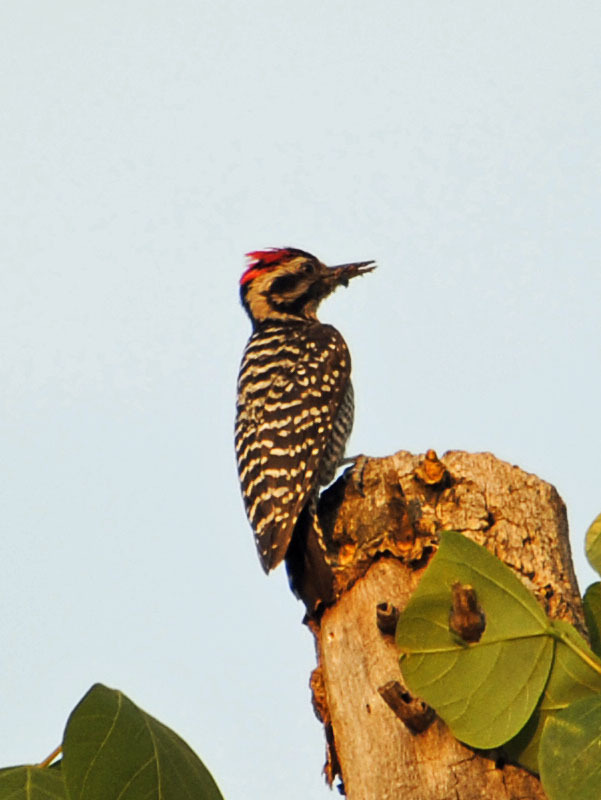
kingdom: Animalia
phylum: Chordata
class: Aves
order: Piciformes
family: Picidae
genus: Dryobates
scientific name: Dryobates scalaris
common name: Ladder-backed woodpecker
